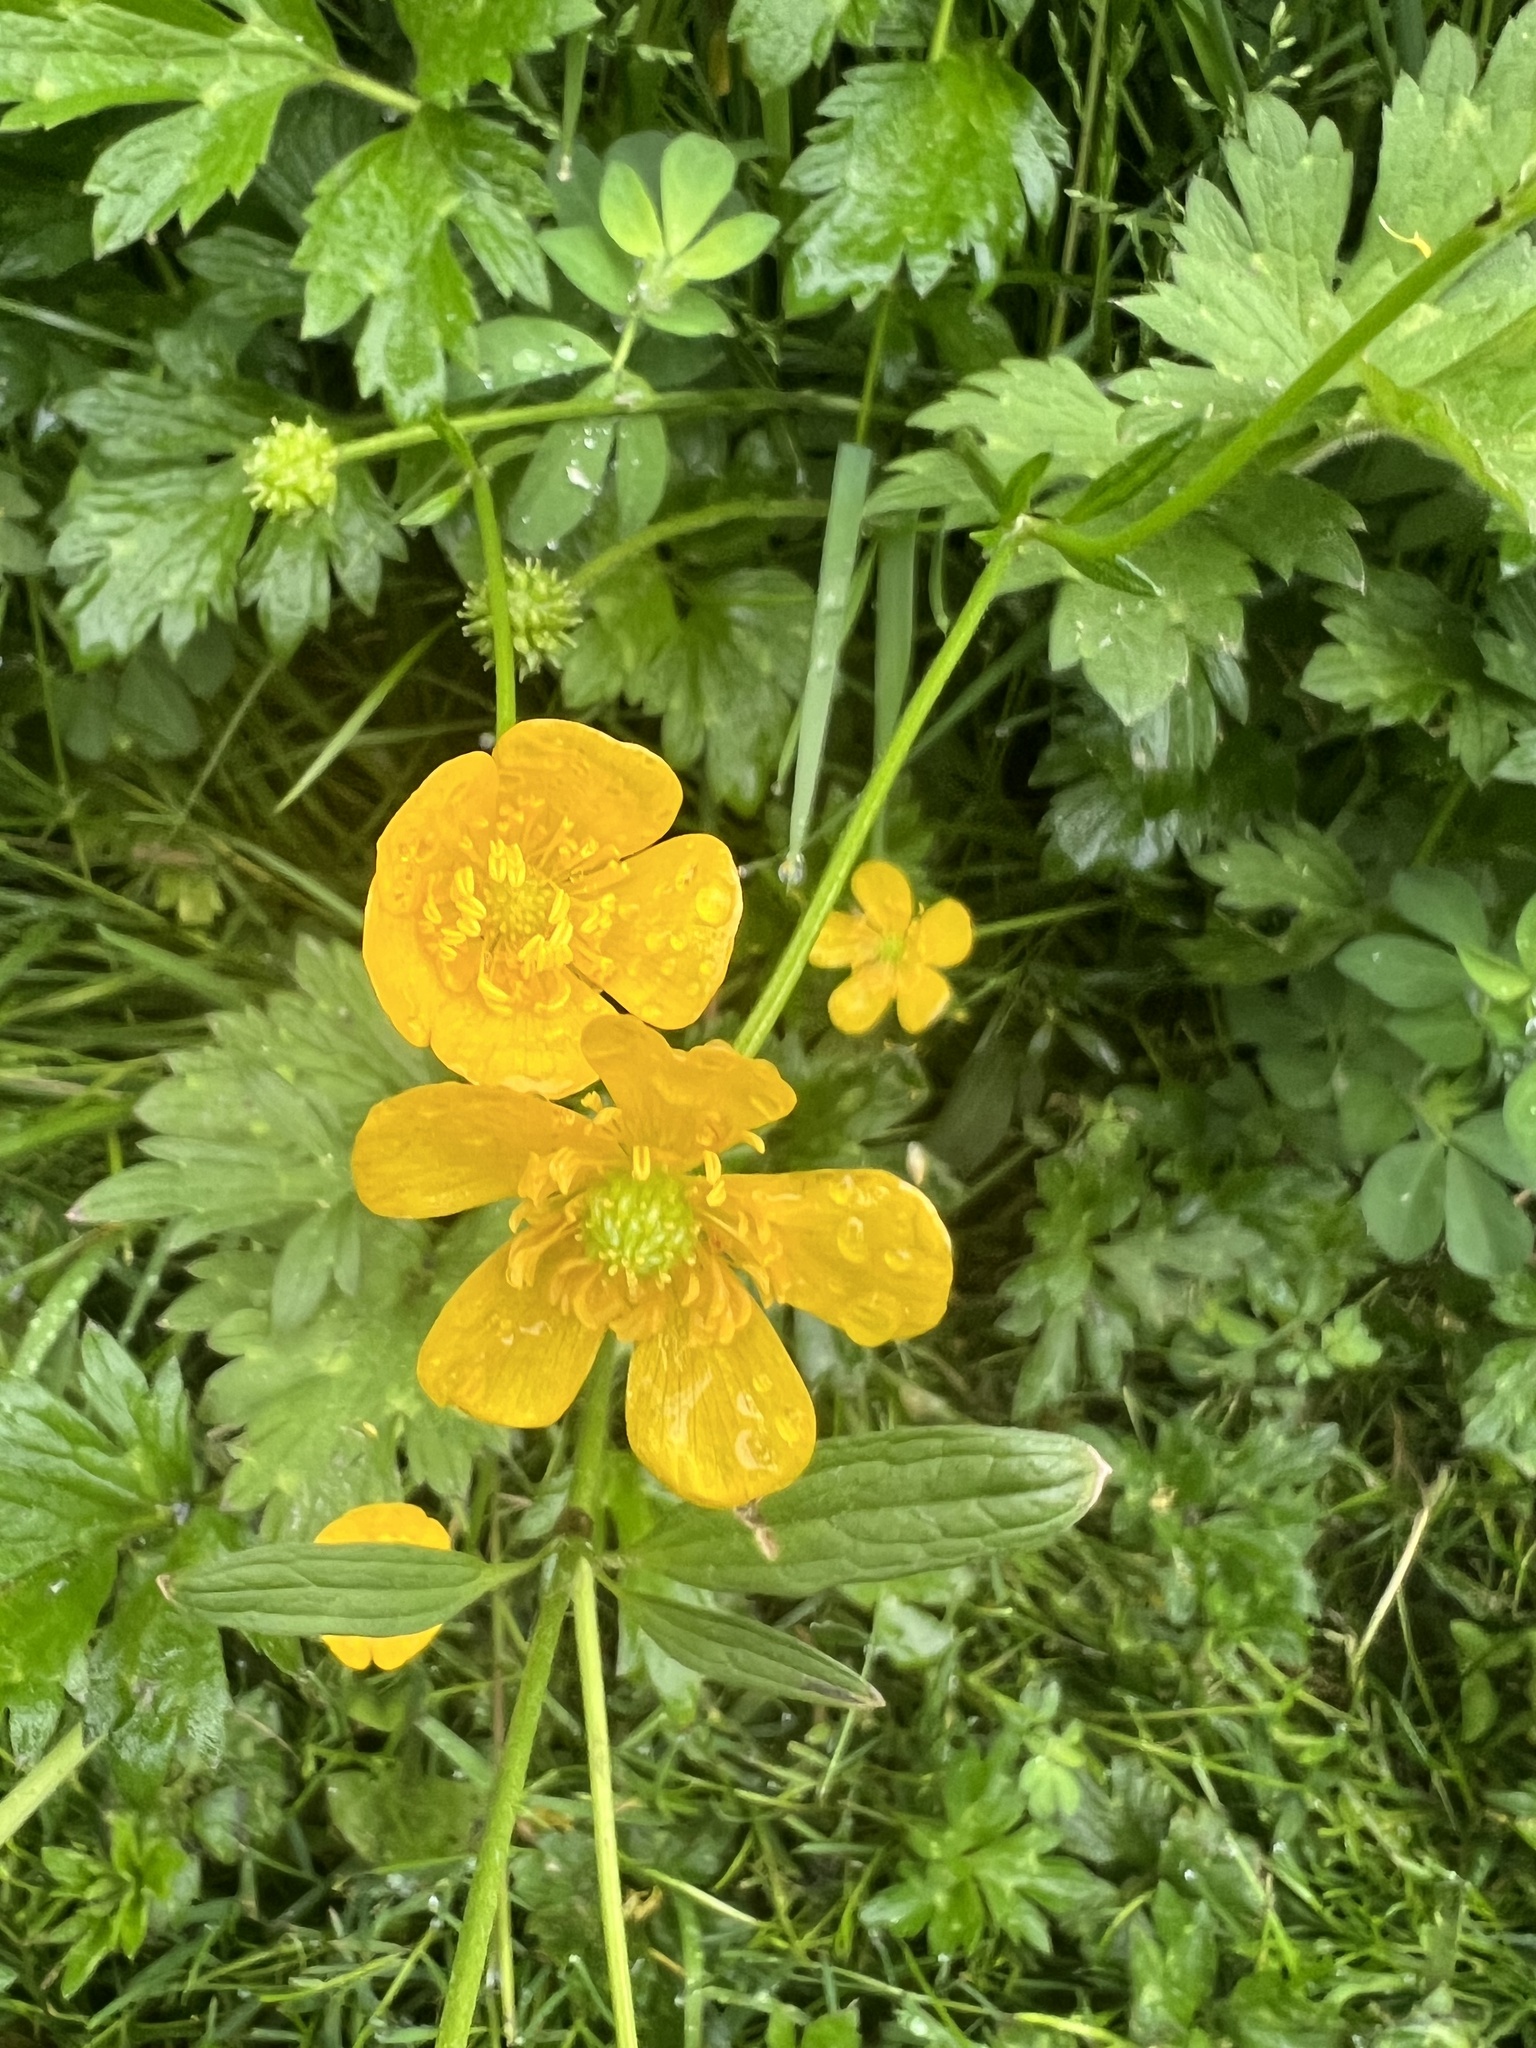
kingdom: Plantae
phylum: Tracheophyta
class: Magnoliopsida
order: Ranunculales
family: Ranunculaceae
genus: Ranunculus
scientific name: Ranunculus repens
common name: Creeping buttercup
